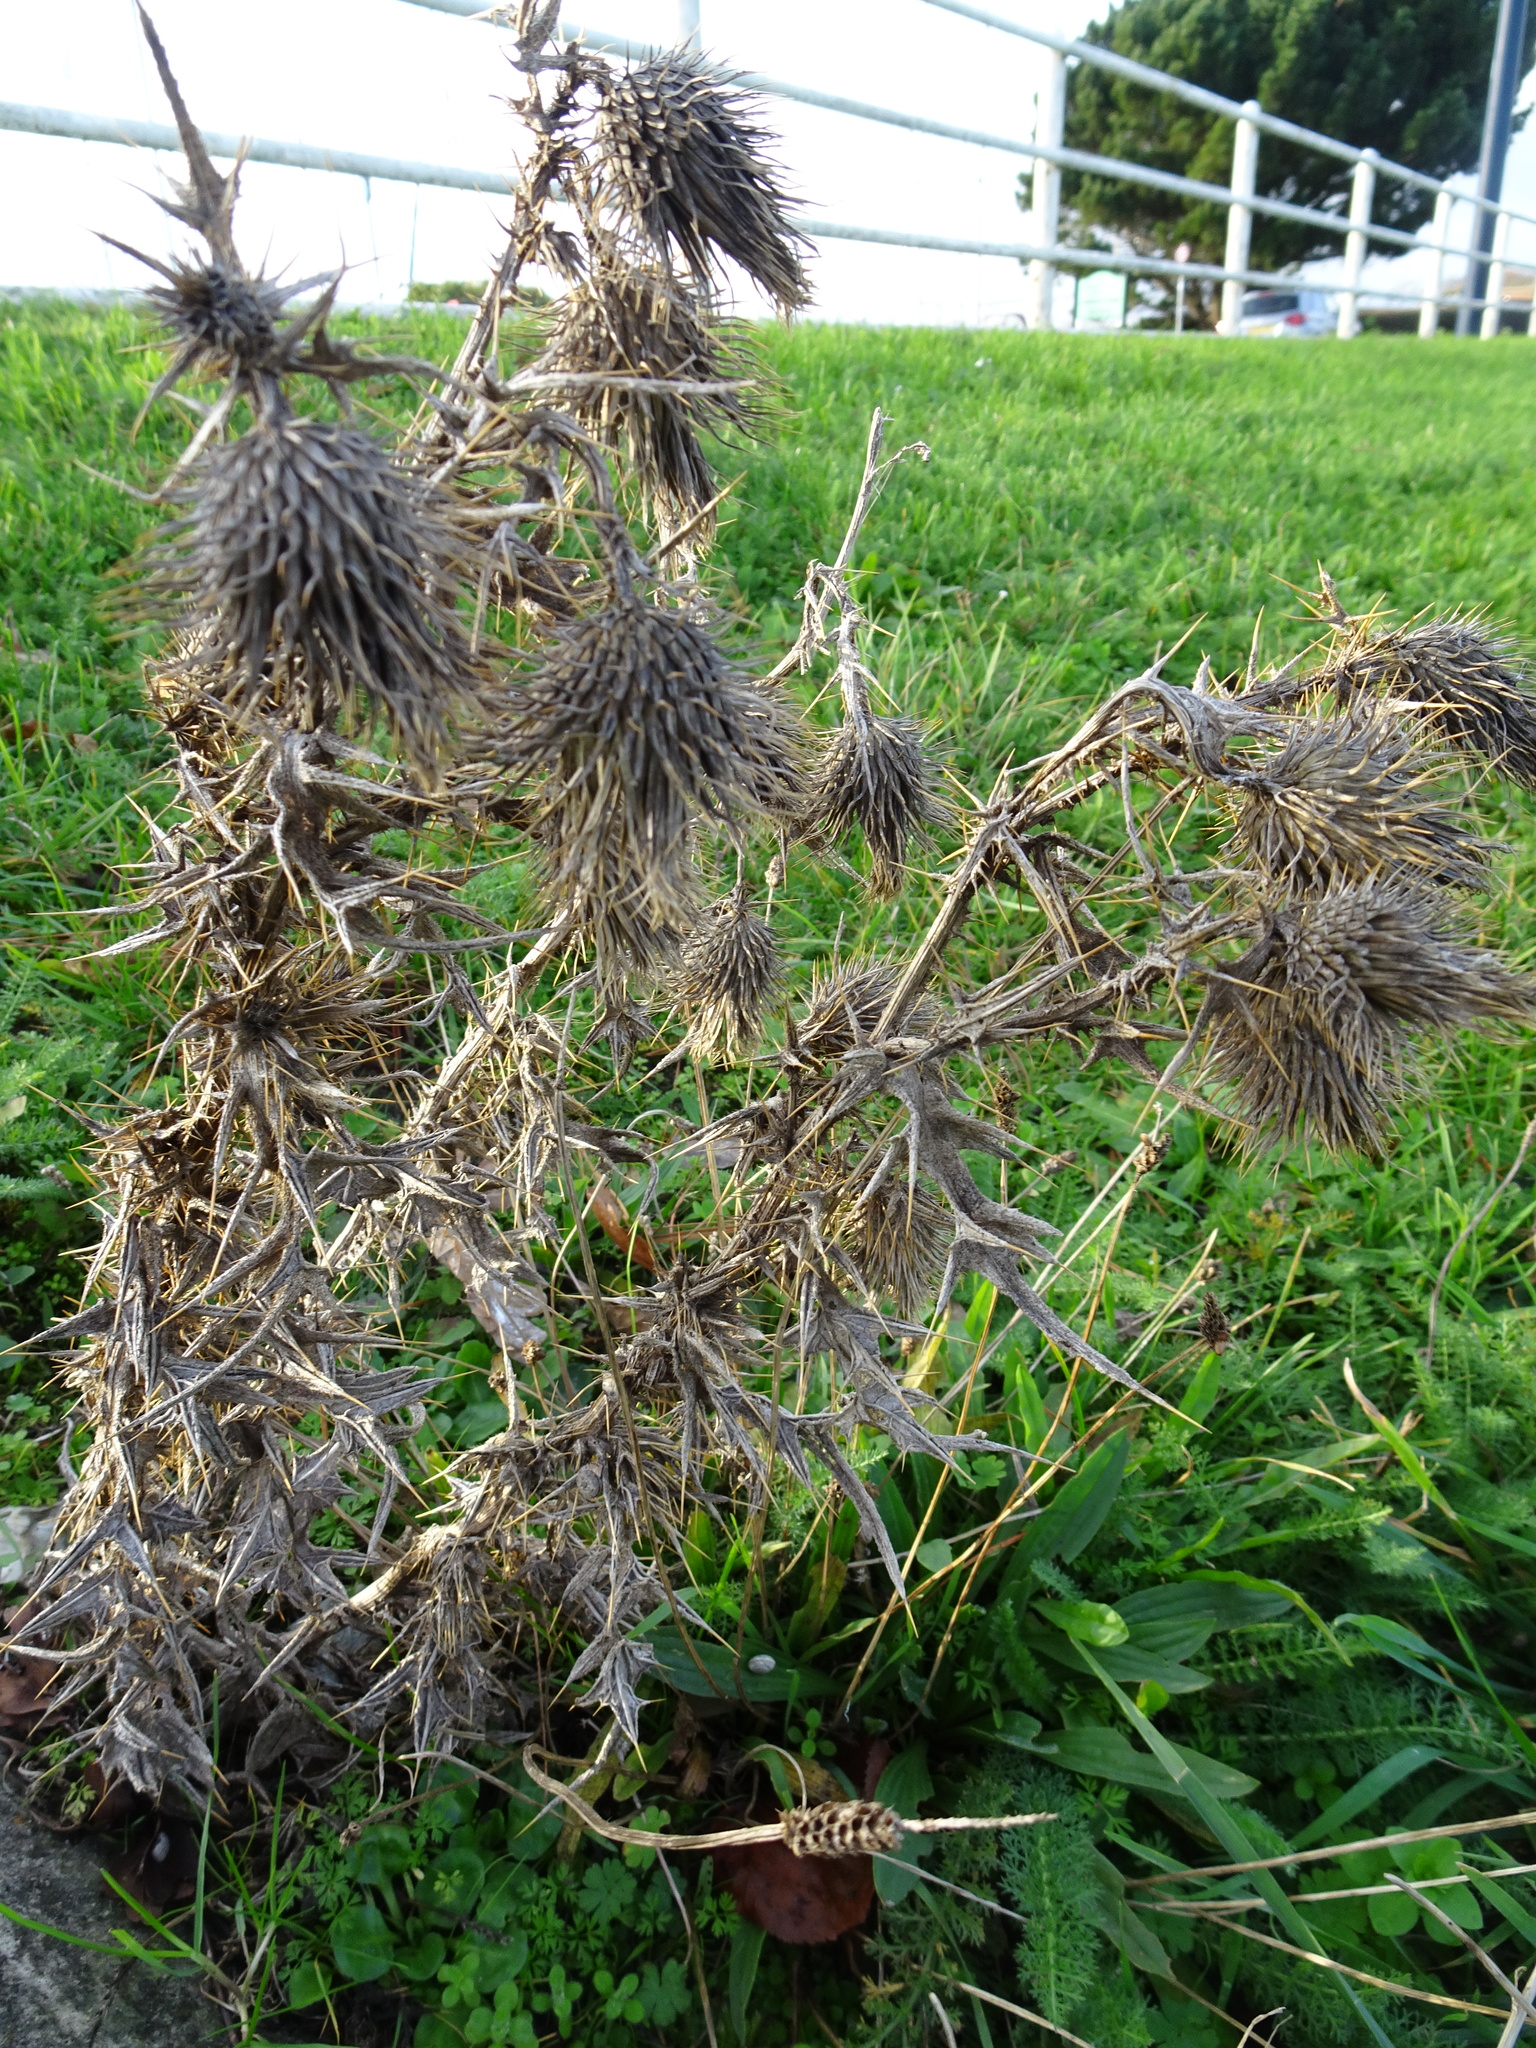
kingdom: Plantae
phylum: Tracheophyta
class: Magnoliopsida
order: Asterales
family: Asteraceae
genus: Cirsium
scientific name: Cirsium vulgare
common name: Bull thistle
